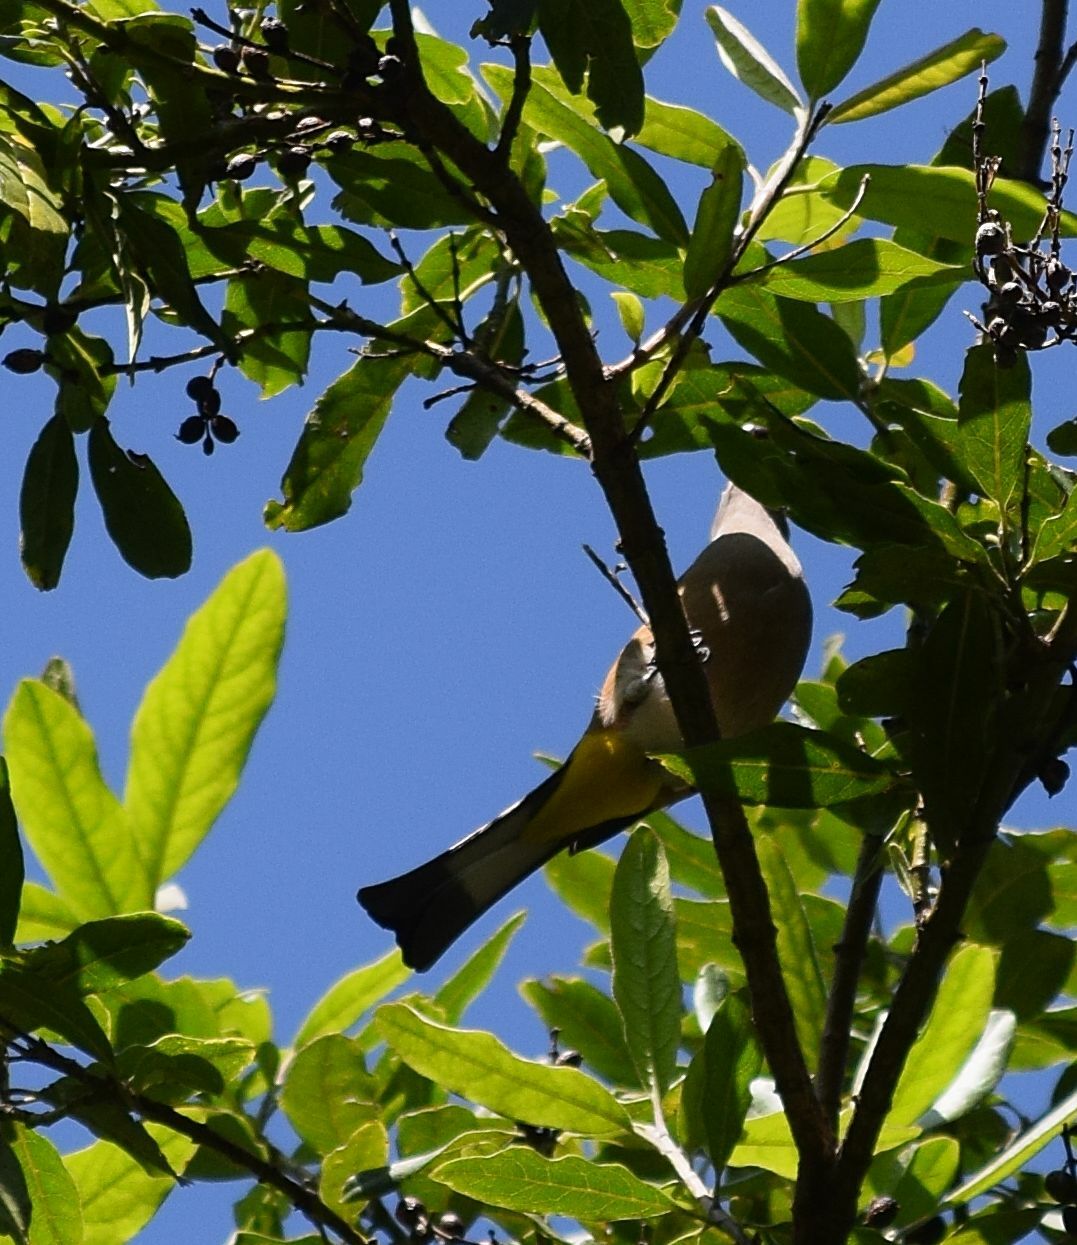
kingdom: Animalia
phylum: Chordata
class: Aves
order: Passeriformes
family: Ptilogonatidae
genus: Ptilogonys
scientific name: Ptilogonys cinereus
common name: Gray silky-flycatcher
